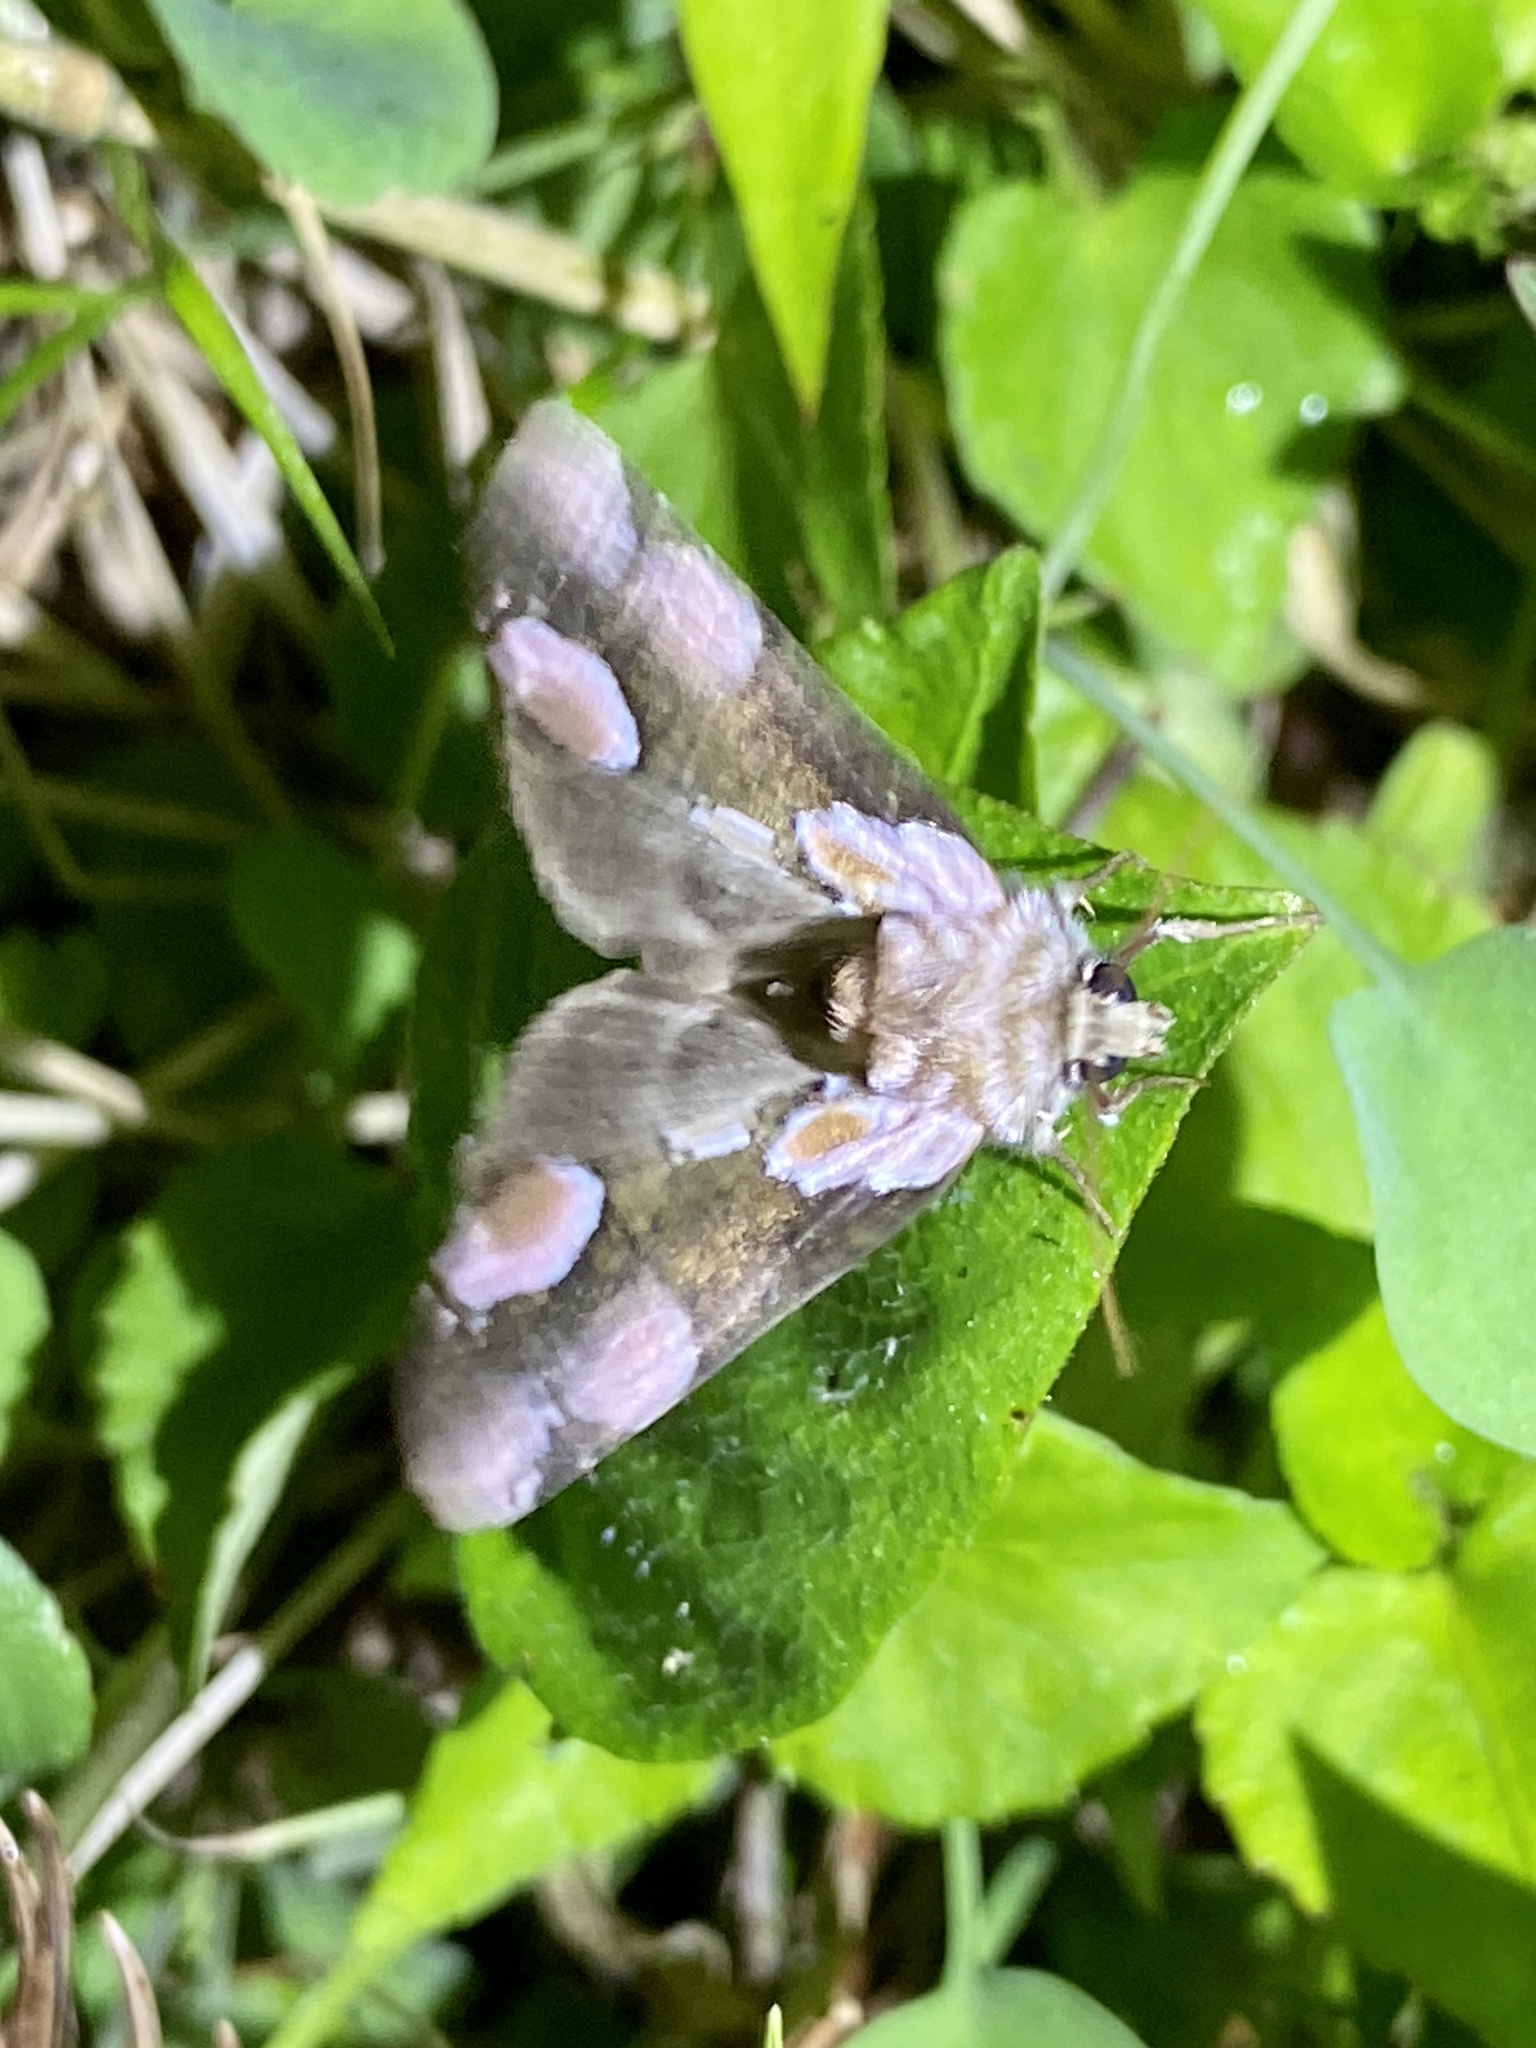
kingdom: Animalia
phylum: Arthropoda
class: Insecta
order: Lepidoptera
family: Drepanidae
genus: Thyatira
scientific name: Thyatira batis
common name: Peach blossom
